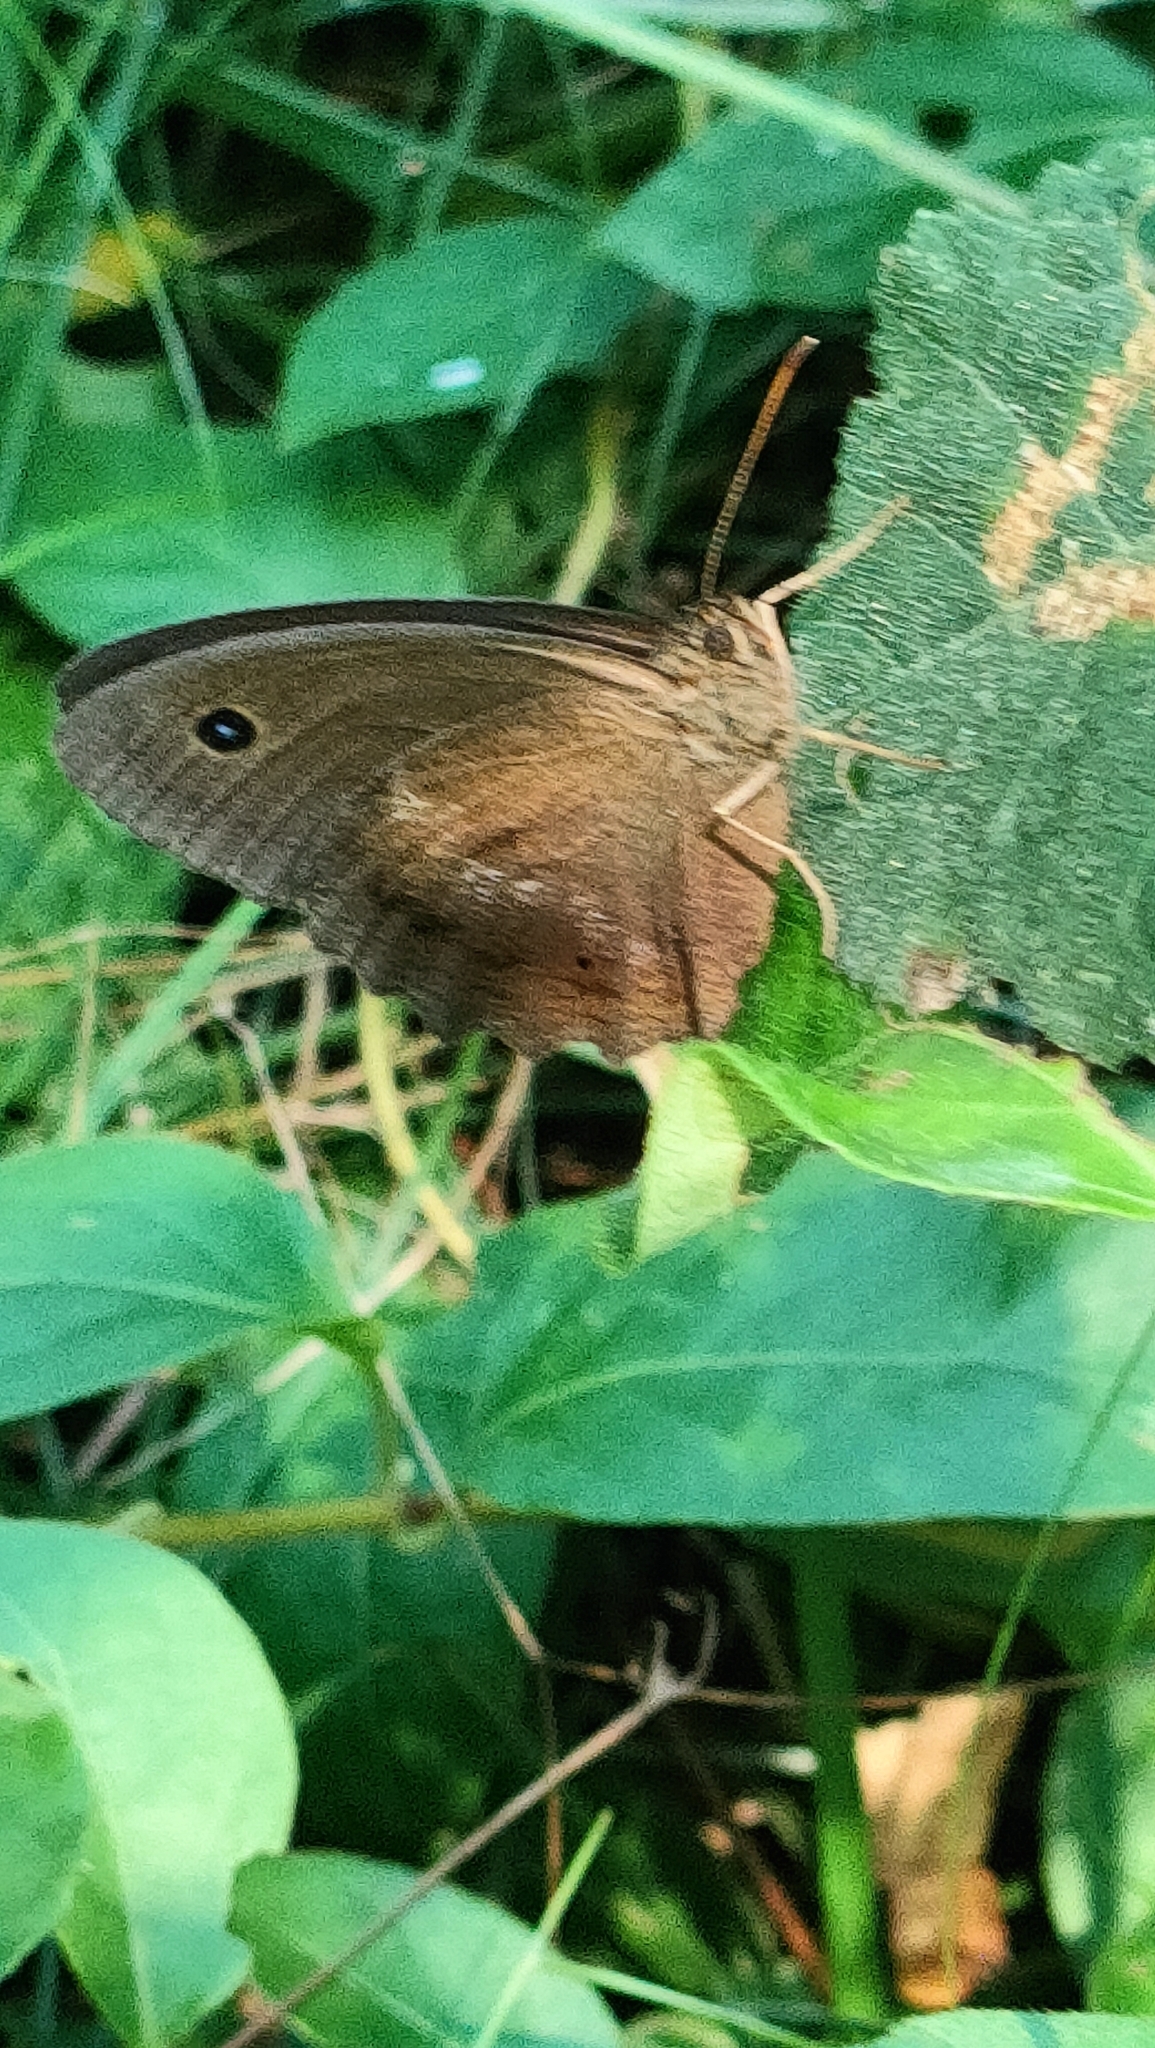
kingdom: Animalia
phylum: Arthropoda
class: Insecta
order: Lepidoptera
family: Nymphalidae
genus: Minois
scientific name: Minois dryas
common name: Dryad
